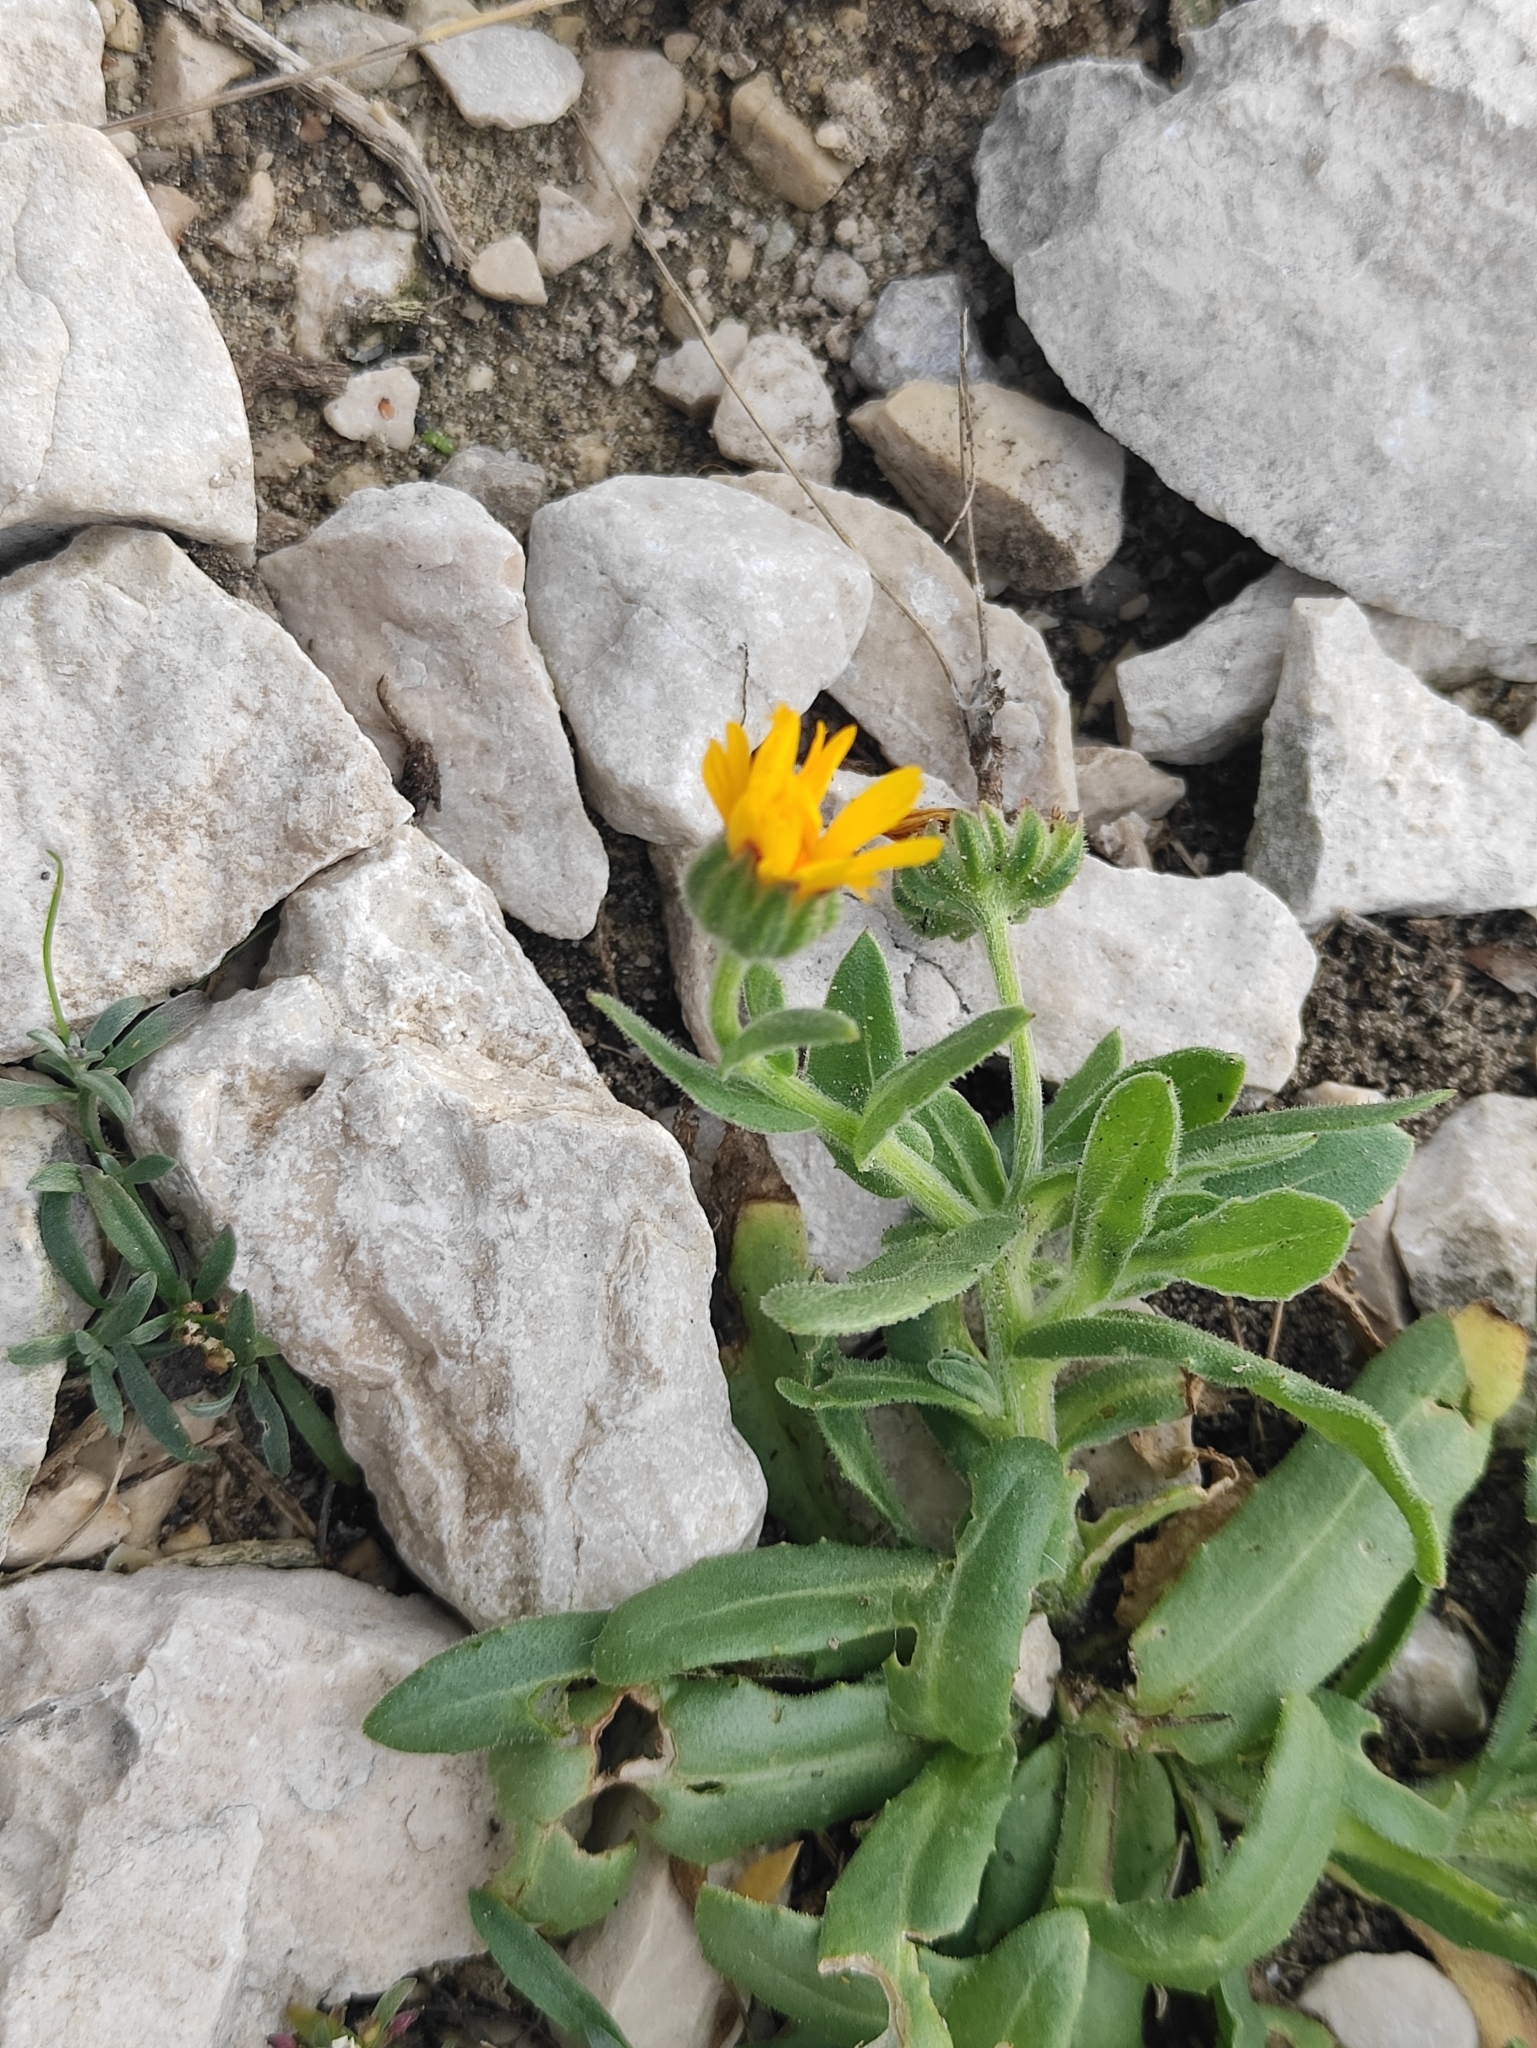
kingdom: Plantae
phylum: Tracheophyta
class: Magnoliopsida
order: Asterales
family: Asteraceae
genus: Calendula
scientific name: Calendula arvensis
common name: Field marigold
